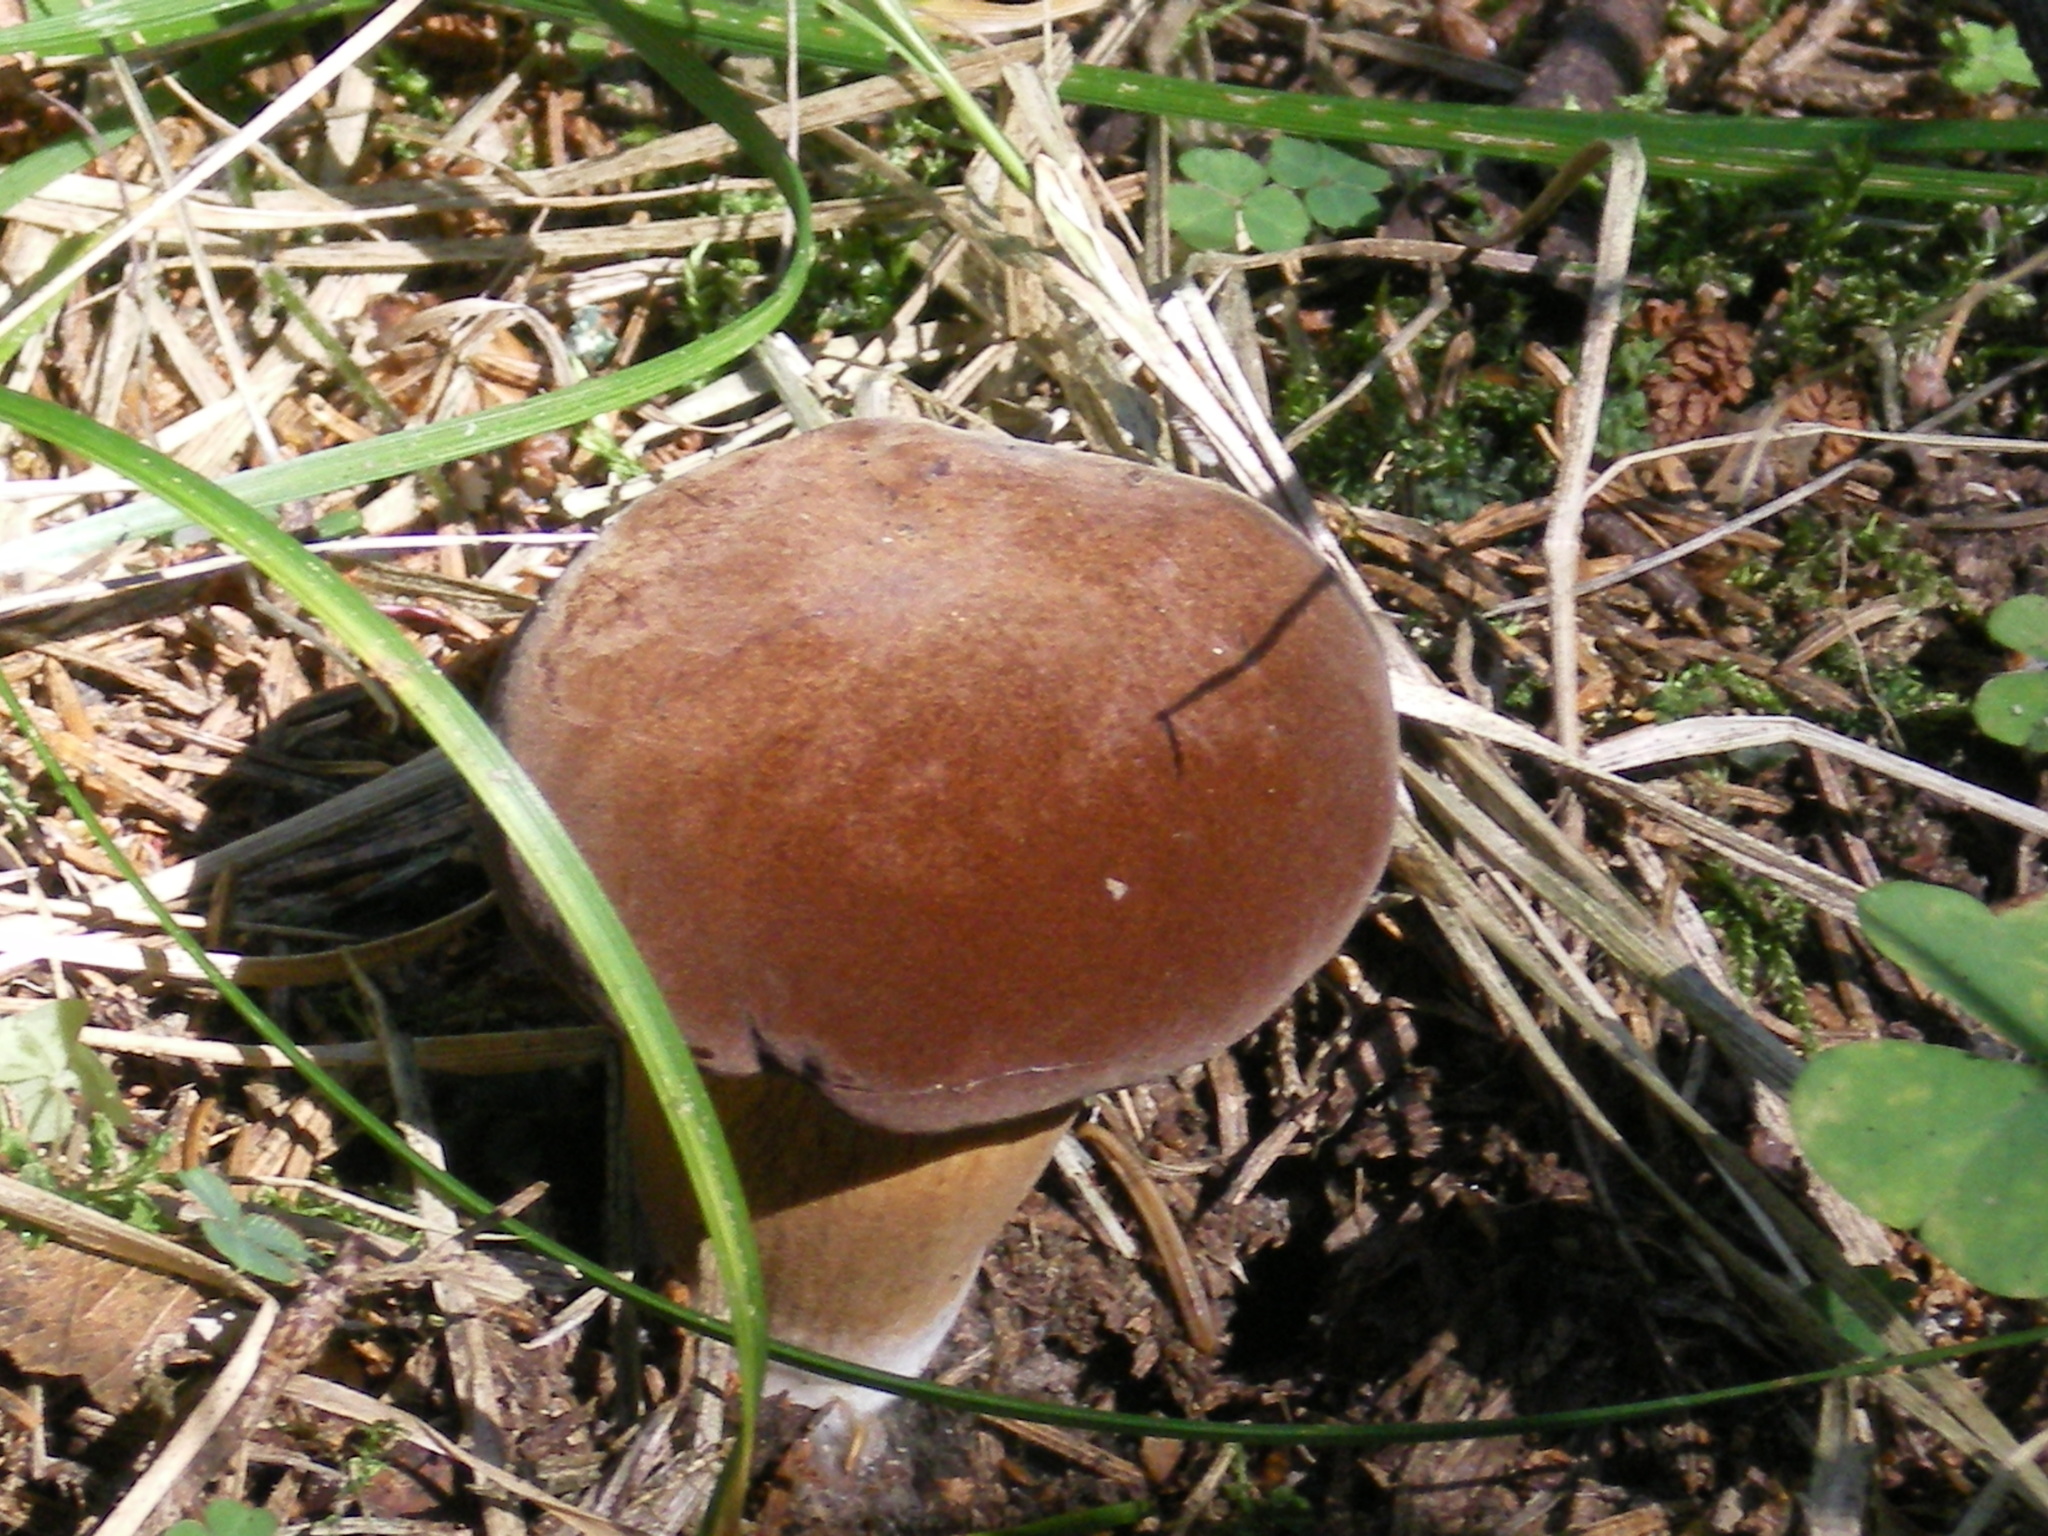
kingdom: Fungi
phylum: Basidiomycota
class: Agaricomycetes
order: Boletales
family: Boletaceae
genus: Imleria
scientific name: Imleria badia
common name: Bay bolete
